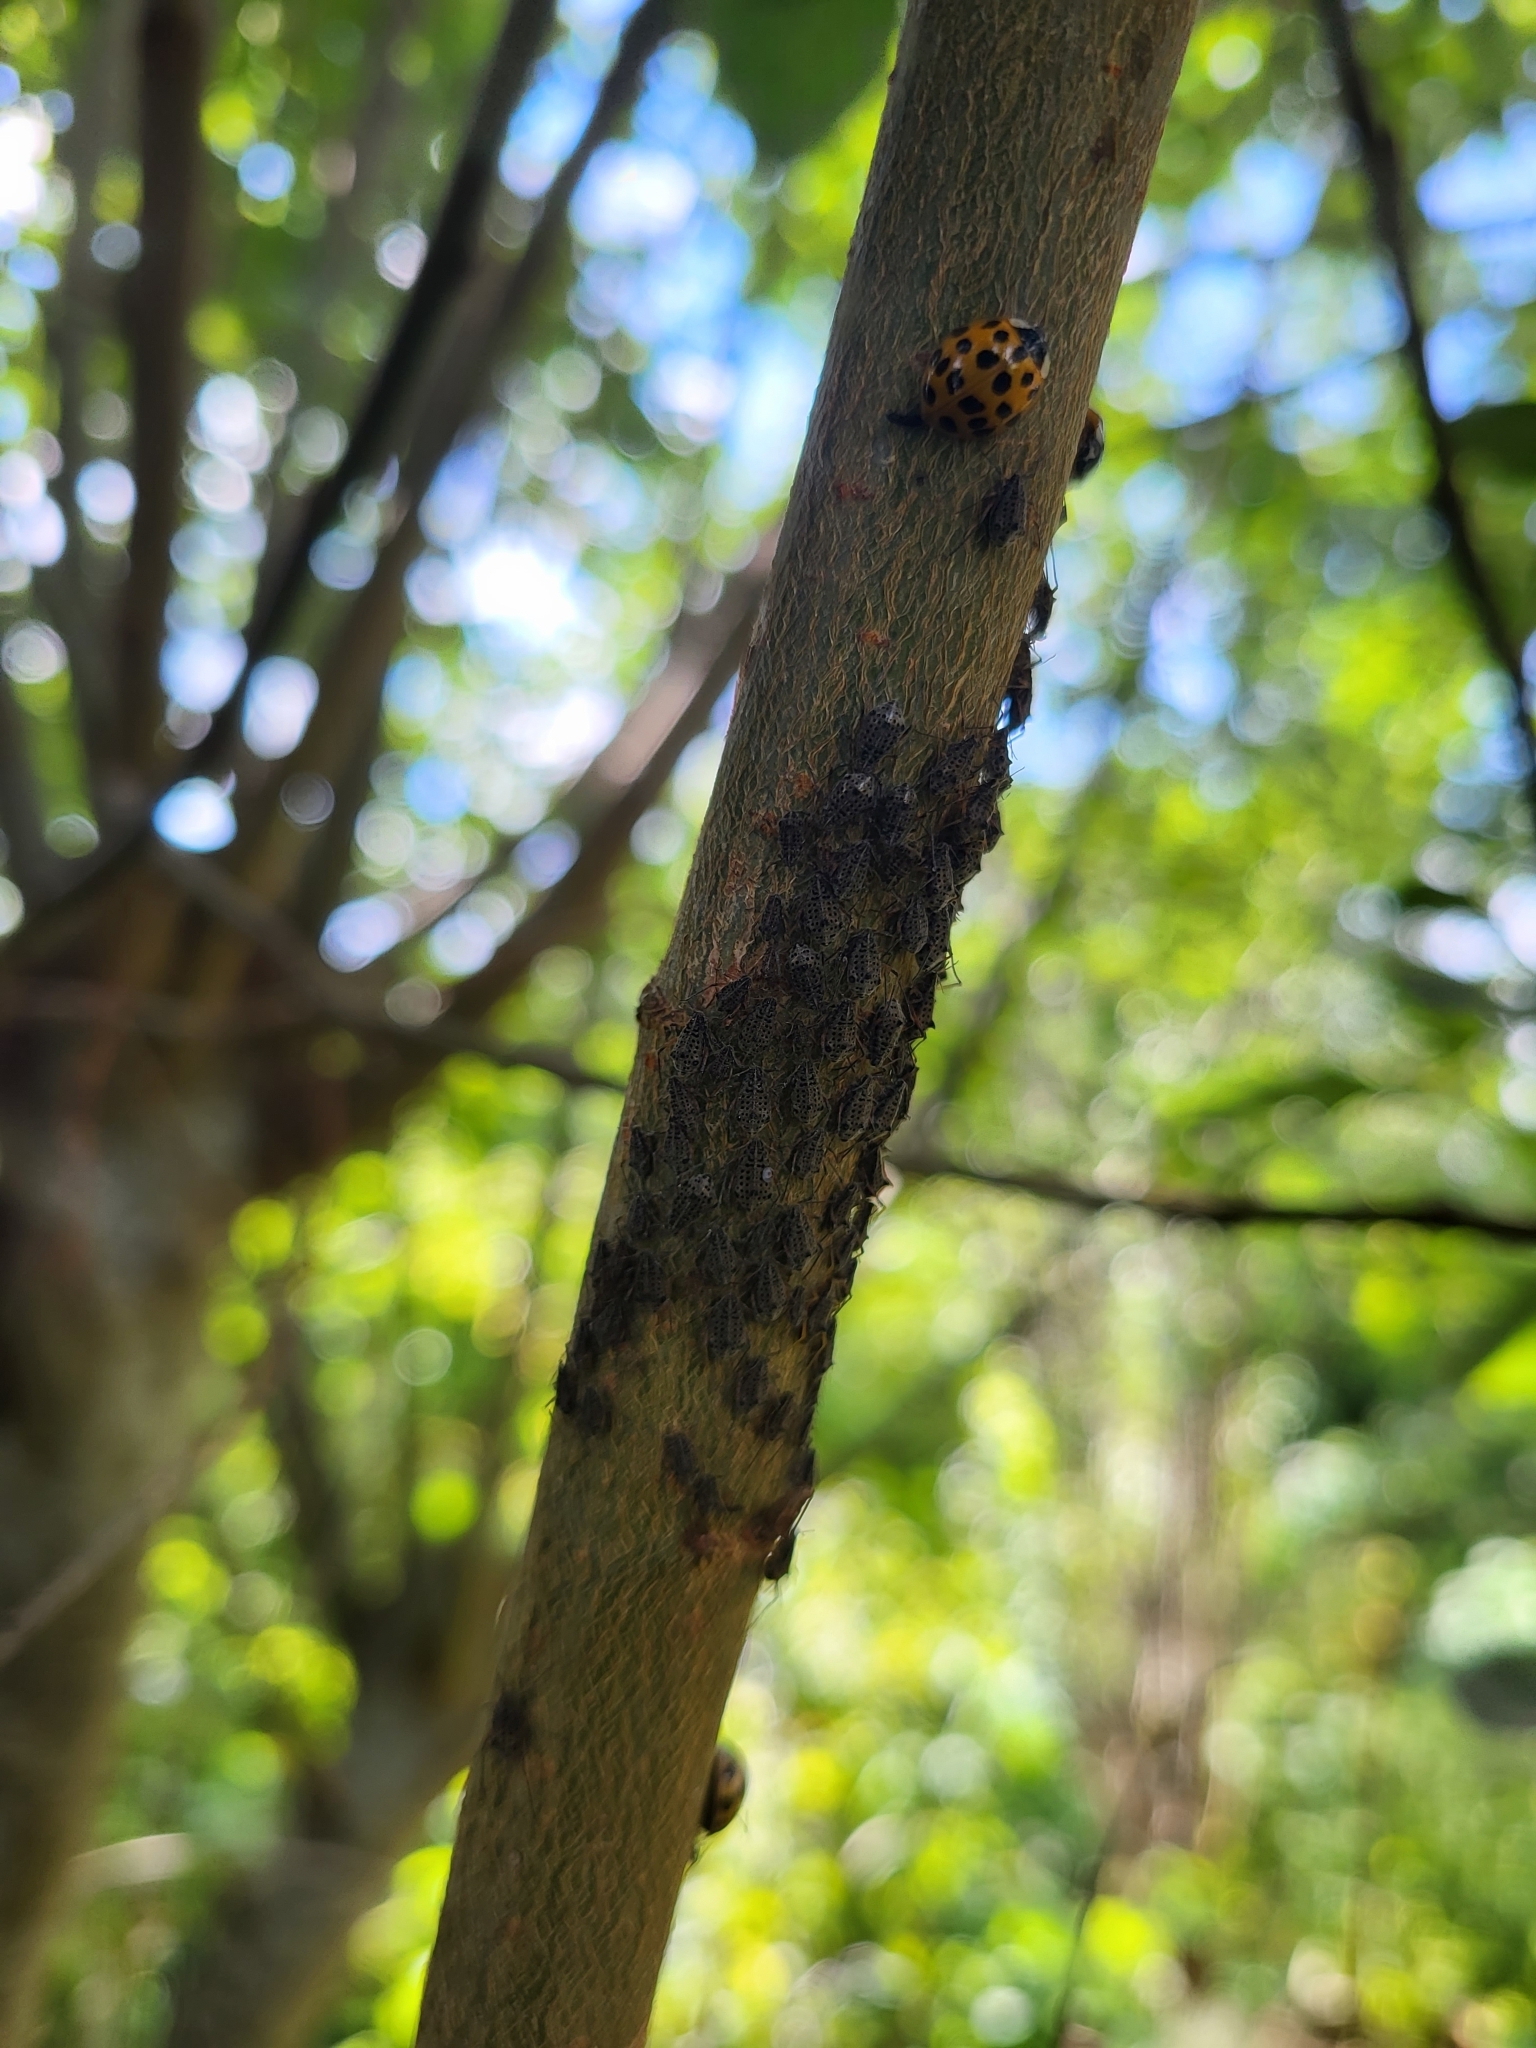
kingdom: Animalia
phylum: Arthropoda
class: Insecta
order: Hemiptera
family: Aphididae
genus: Tuberolachnus
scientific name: Tuberolachnus salignus
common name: Giant willow aphid
